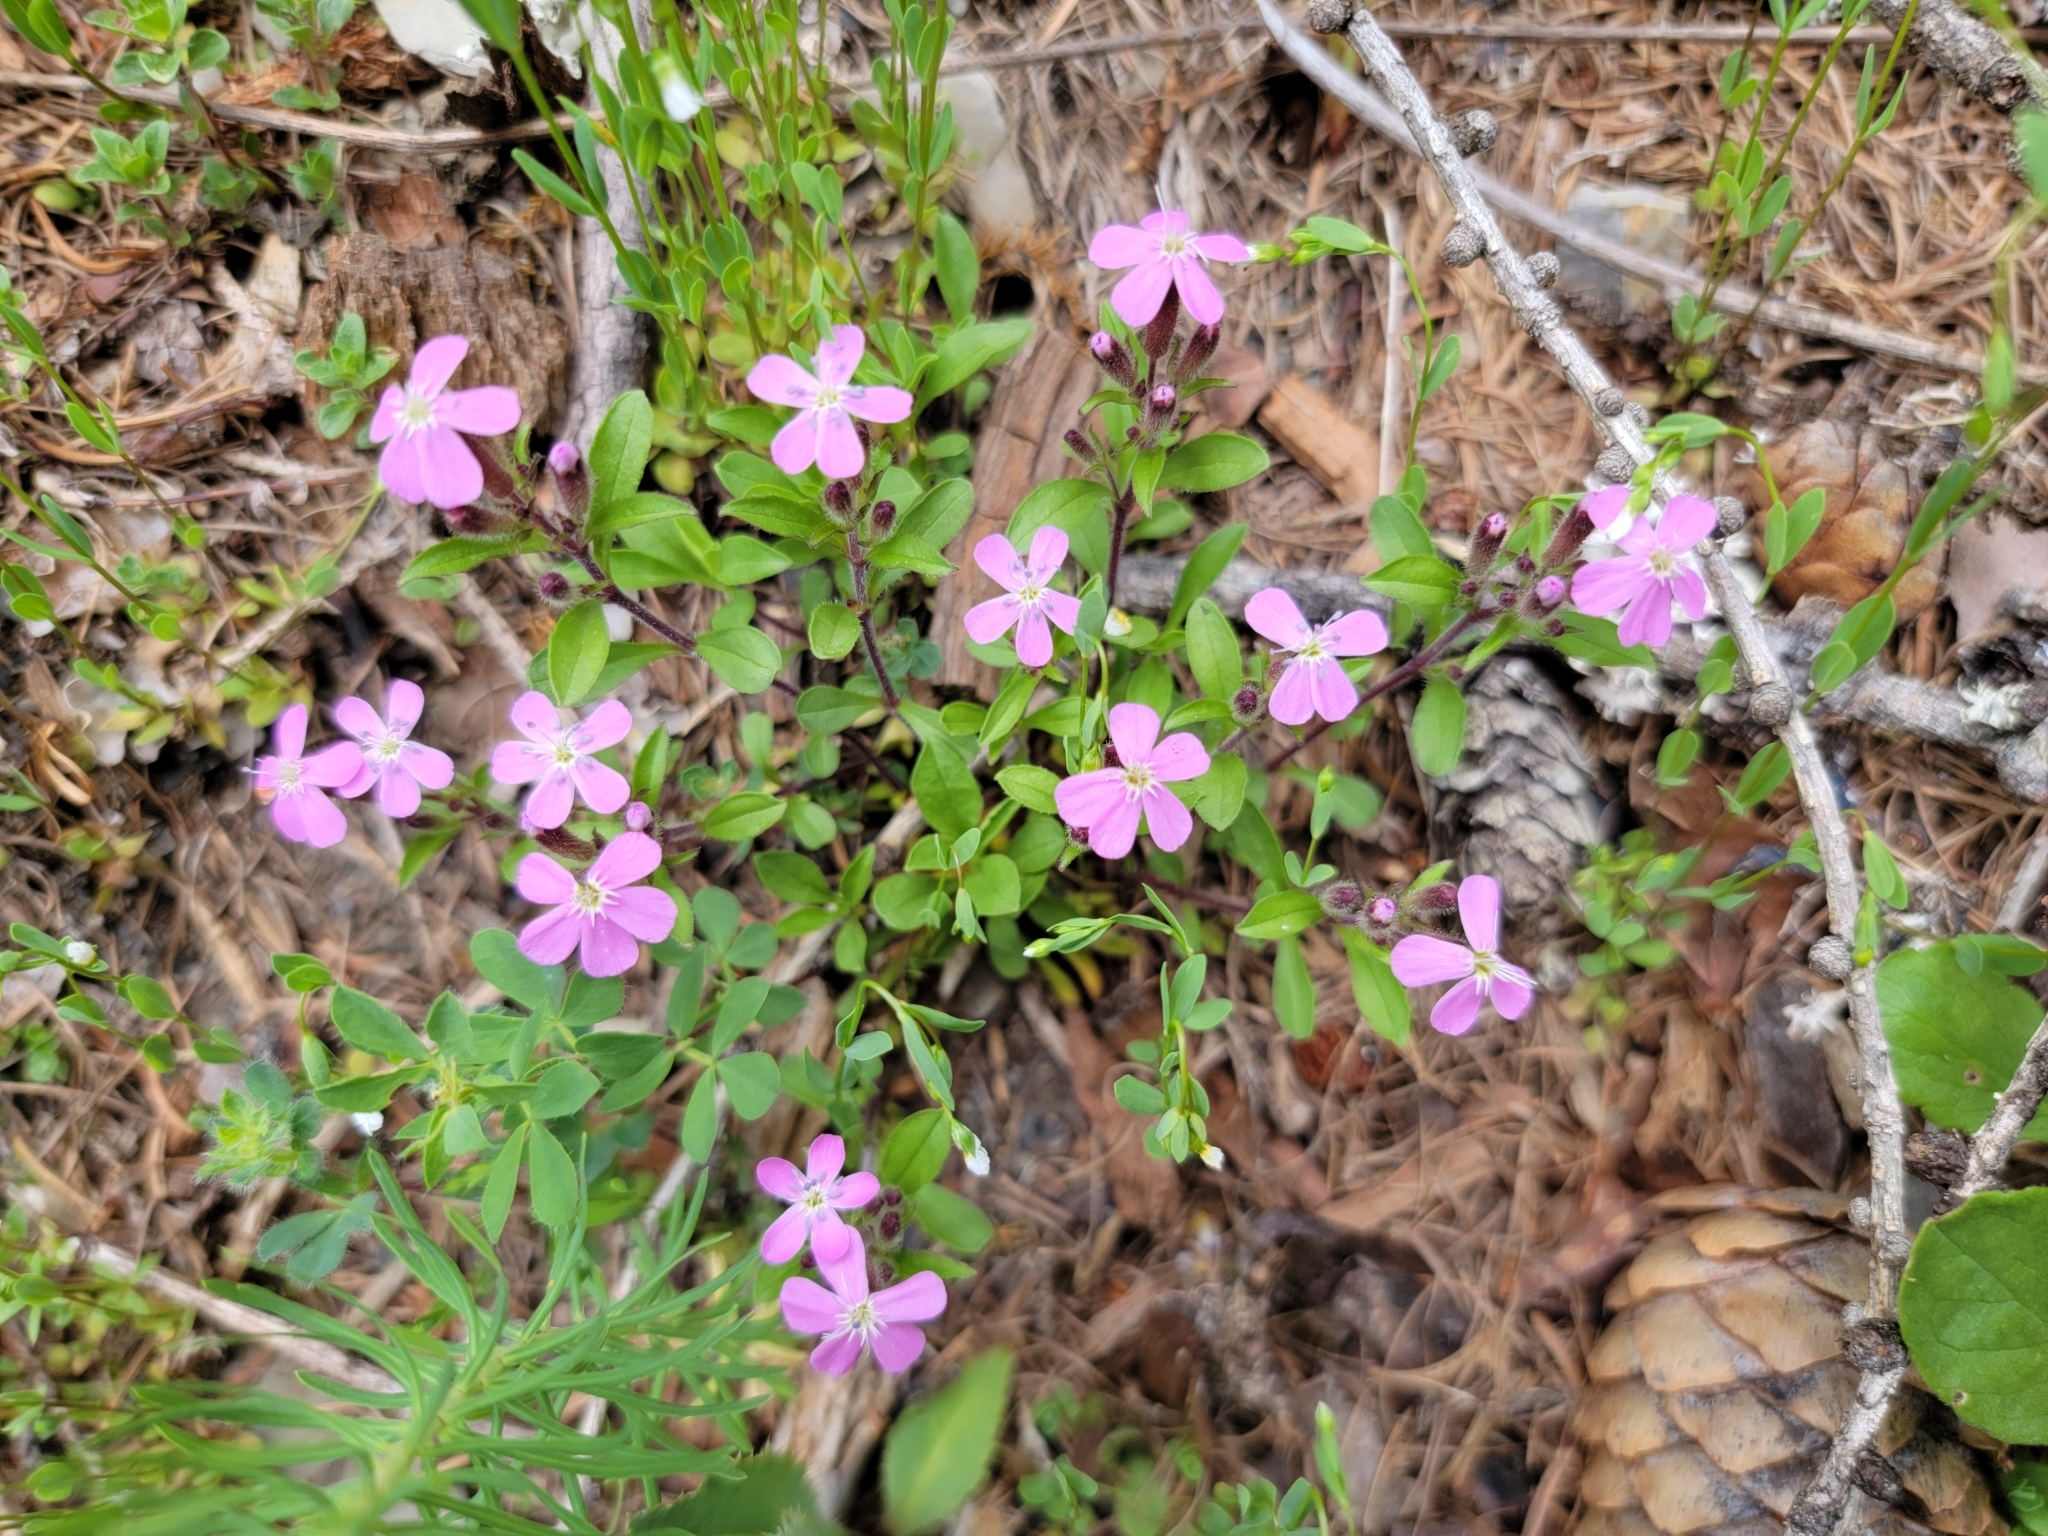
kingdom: Plantae
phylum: Tracheophyta
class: Magnoliopsida
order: Caryophyllales
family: Caryophyllaceae
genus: Saponaria
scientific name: Saponaria ocymoides
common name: Rock soapwort
